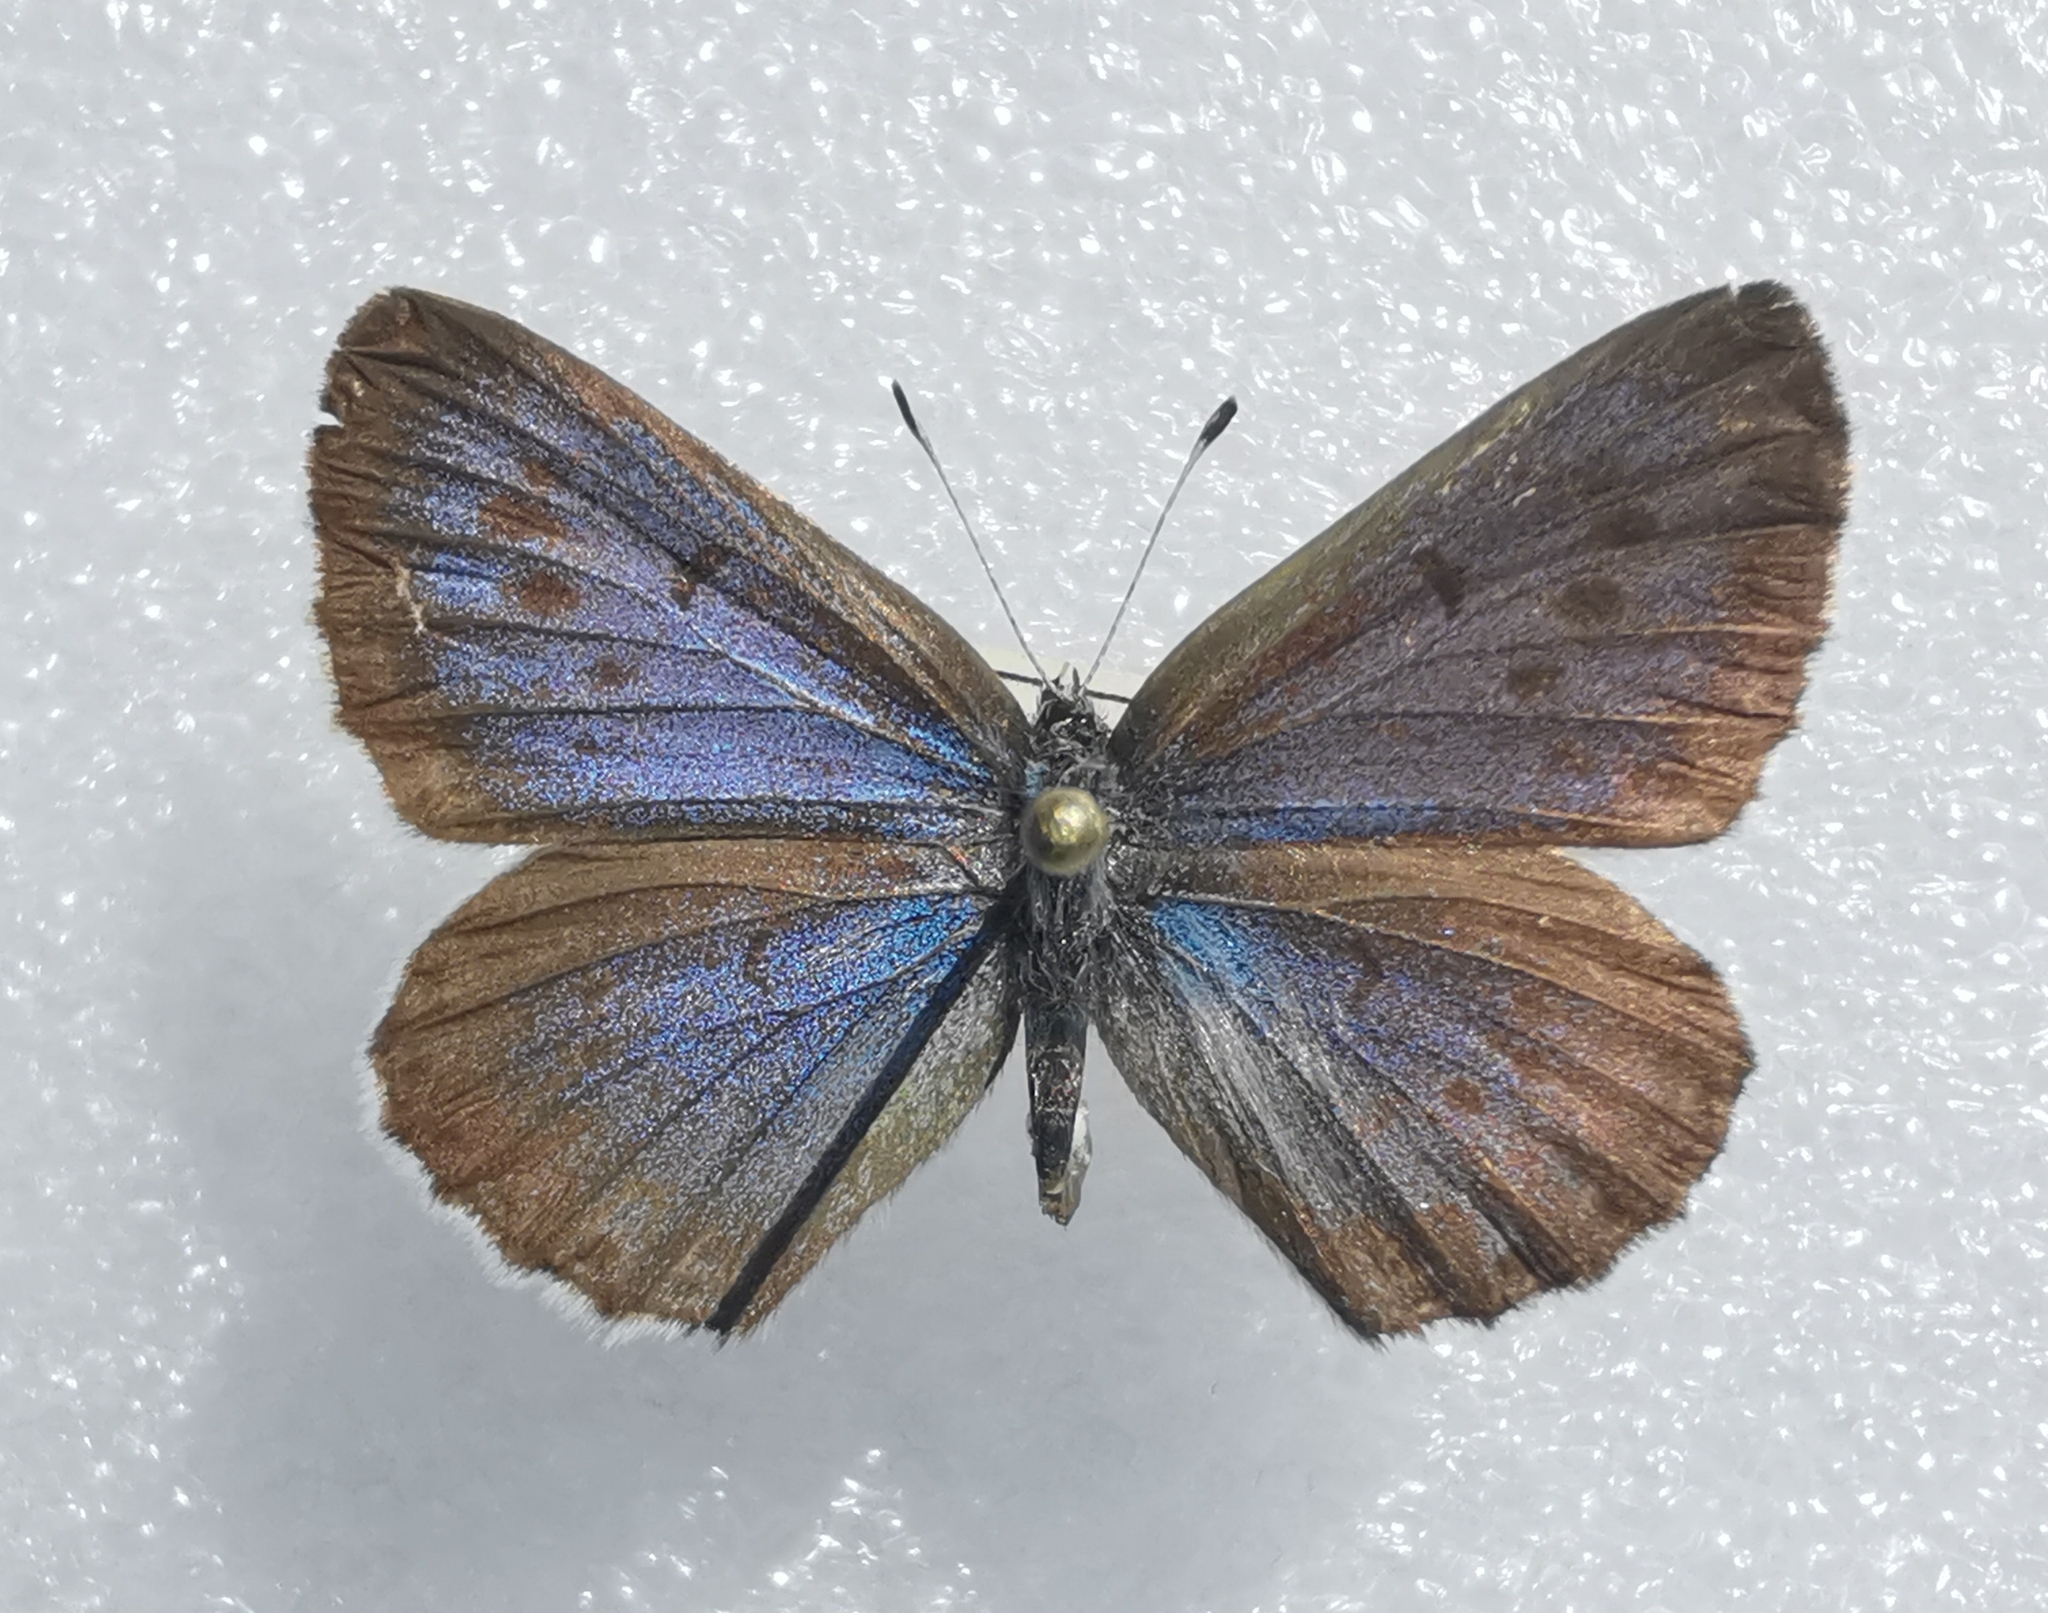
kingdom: Animalia
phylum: Arthropoda
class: Insecta
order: Lepidoptera
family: Lycaenidae
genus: Maculinea
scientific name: Maculinea arion
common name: Large blue
